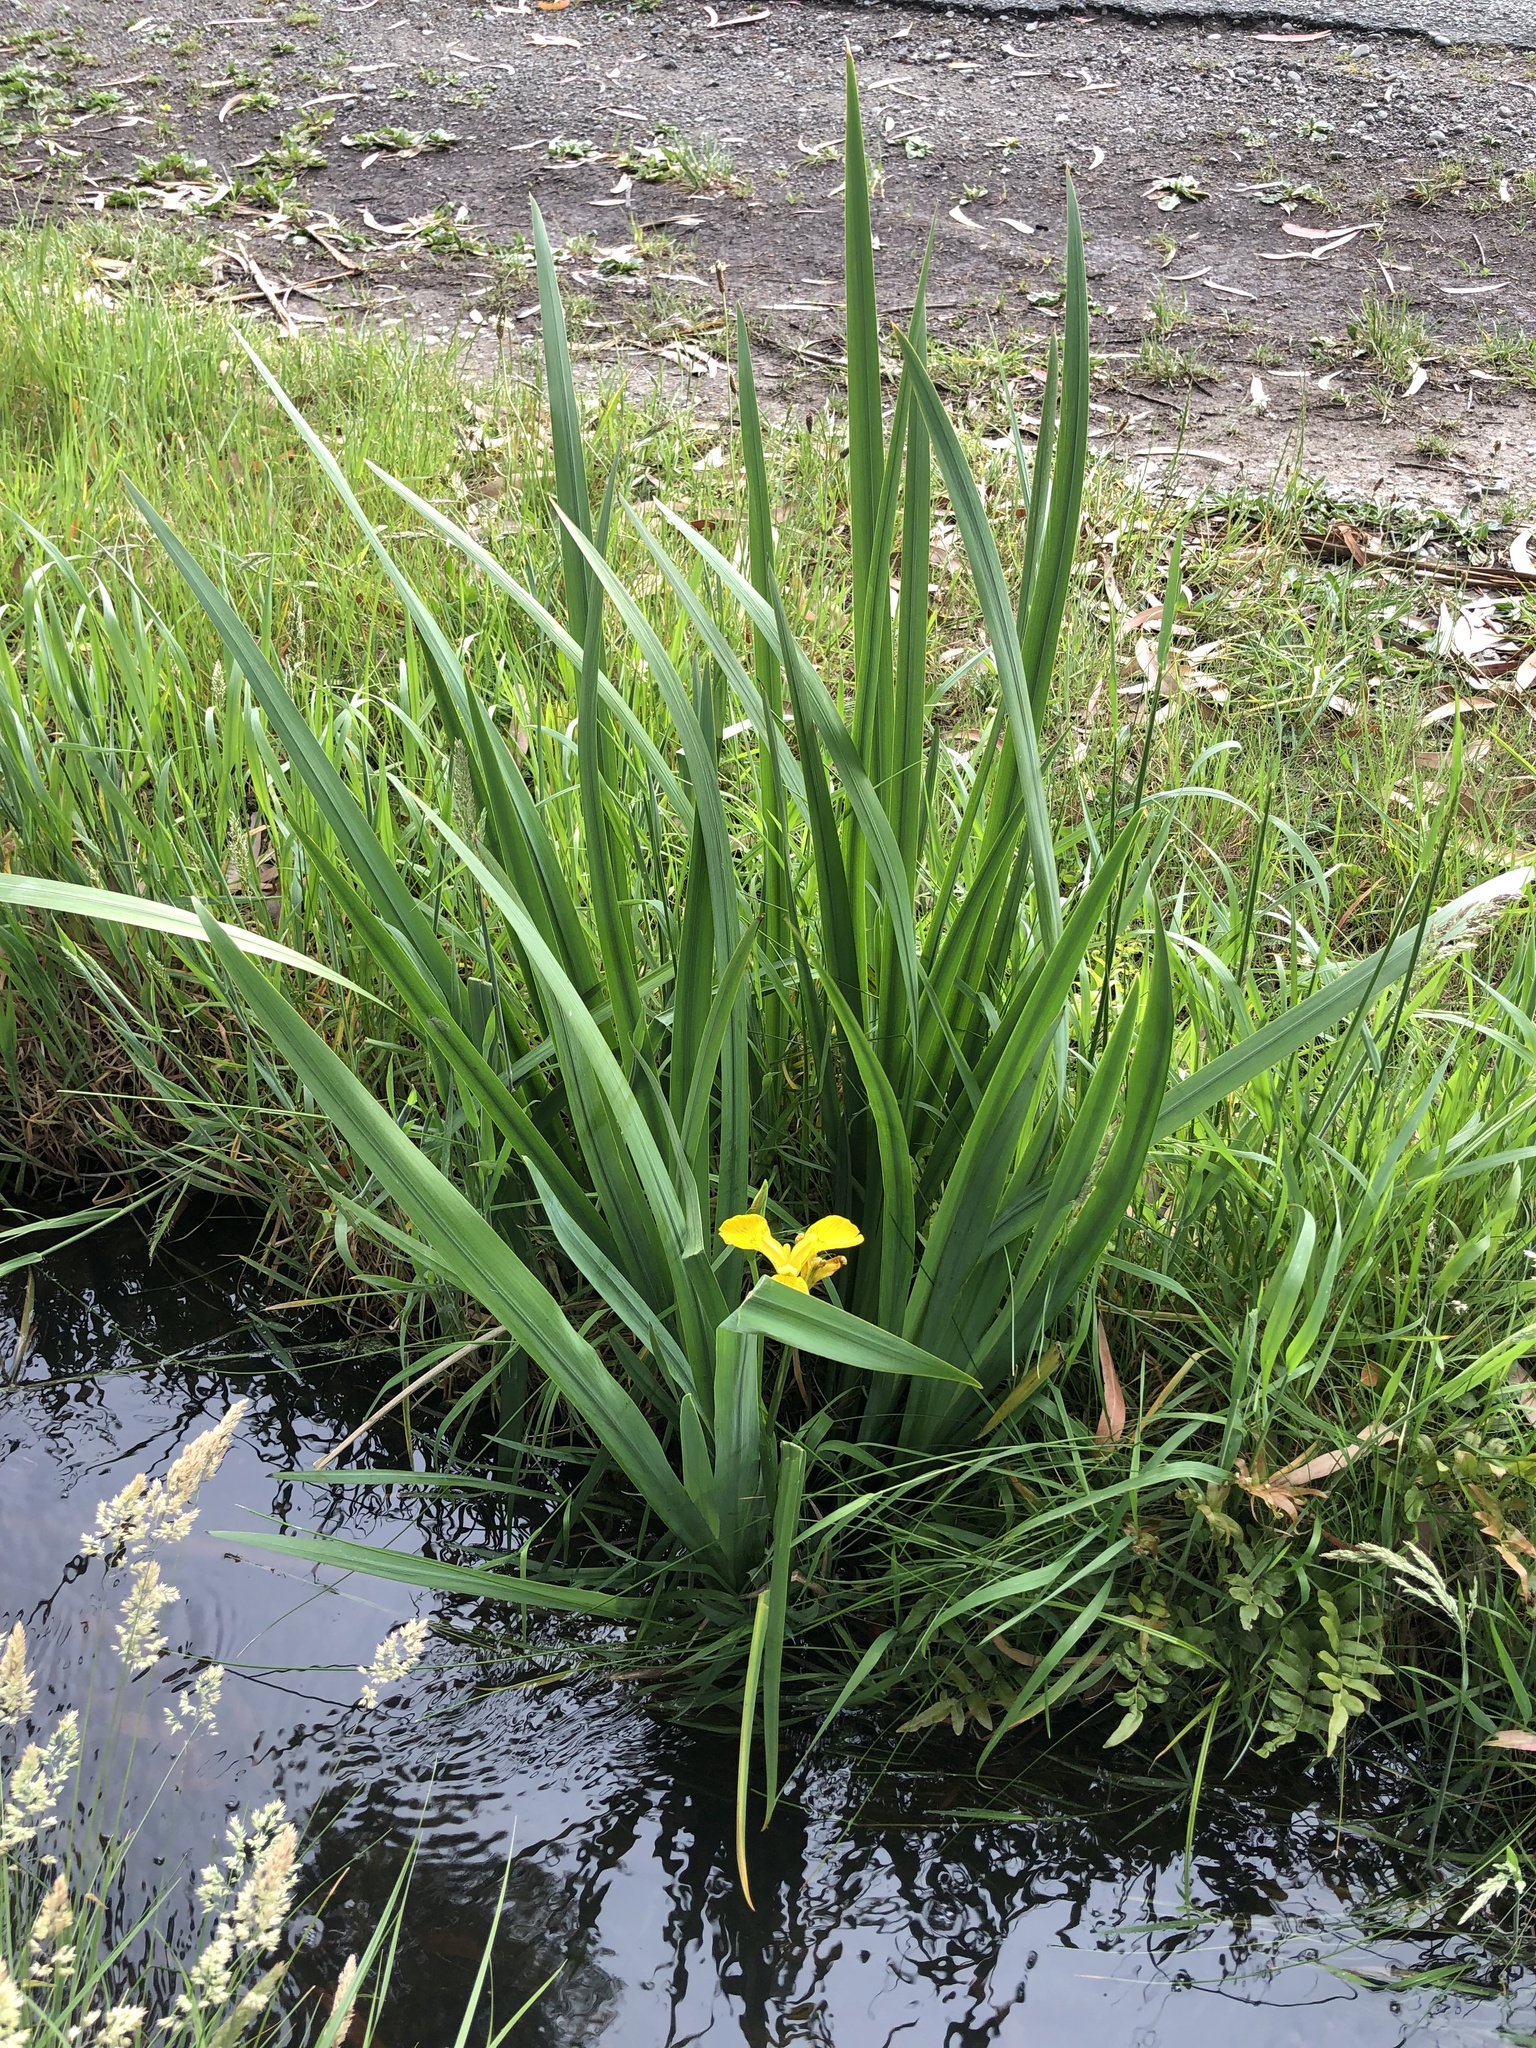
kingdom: Plantae
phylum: Tracheophyta
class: Liliopsida
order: Asparagales
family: Iridaceae
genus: Iris
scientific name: Iris pseudacorus
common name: Yellow flag
